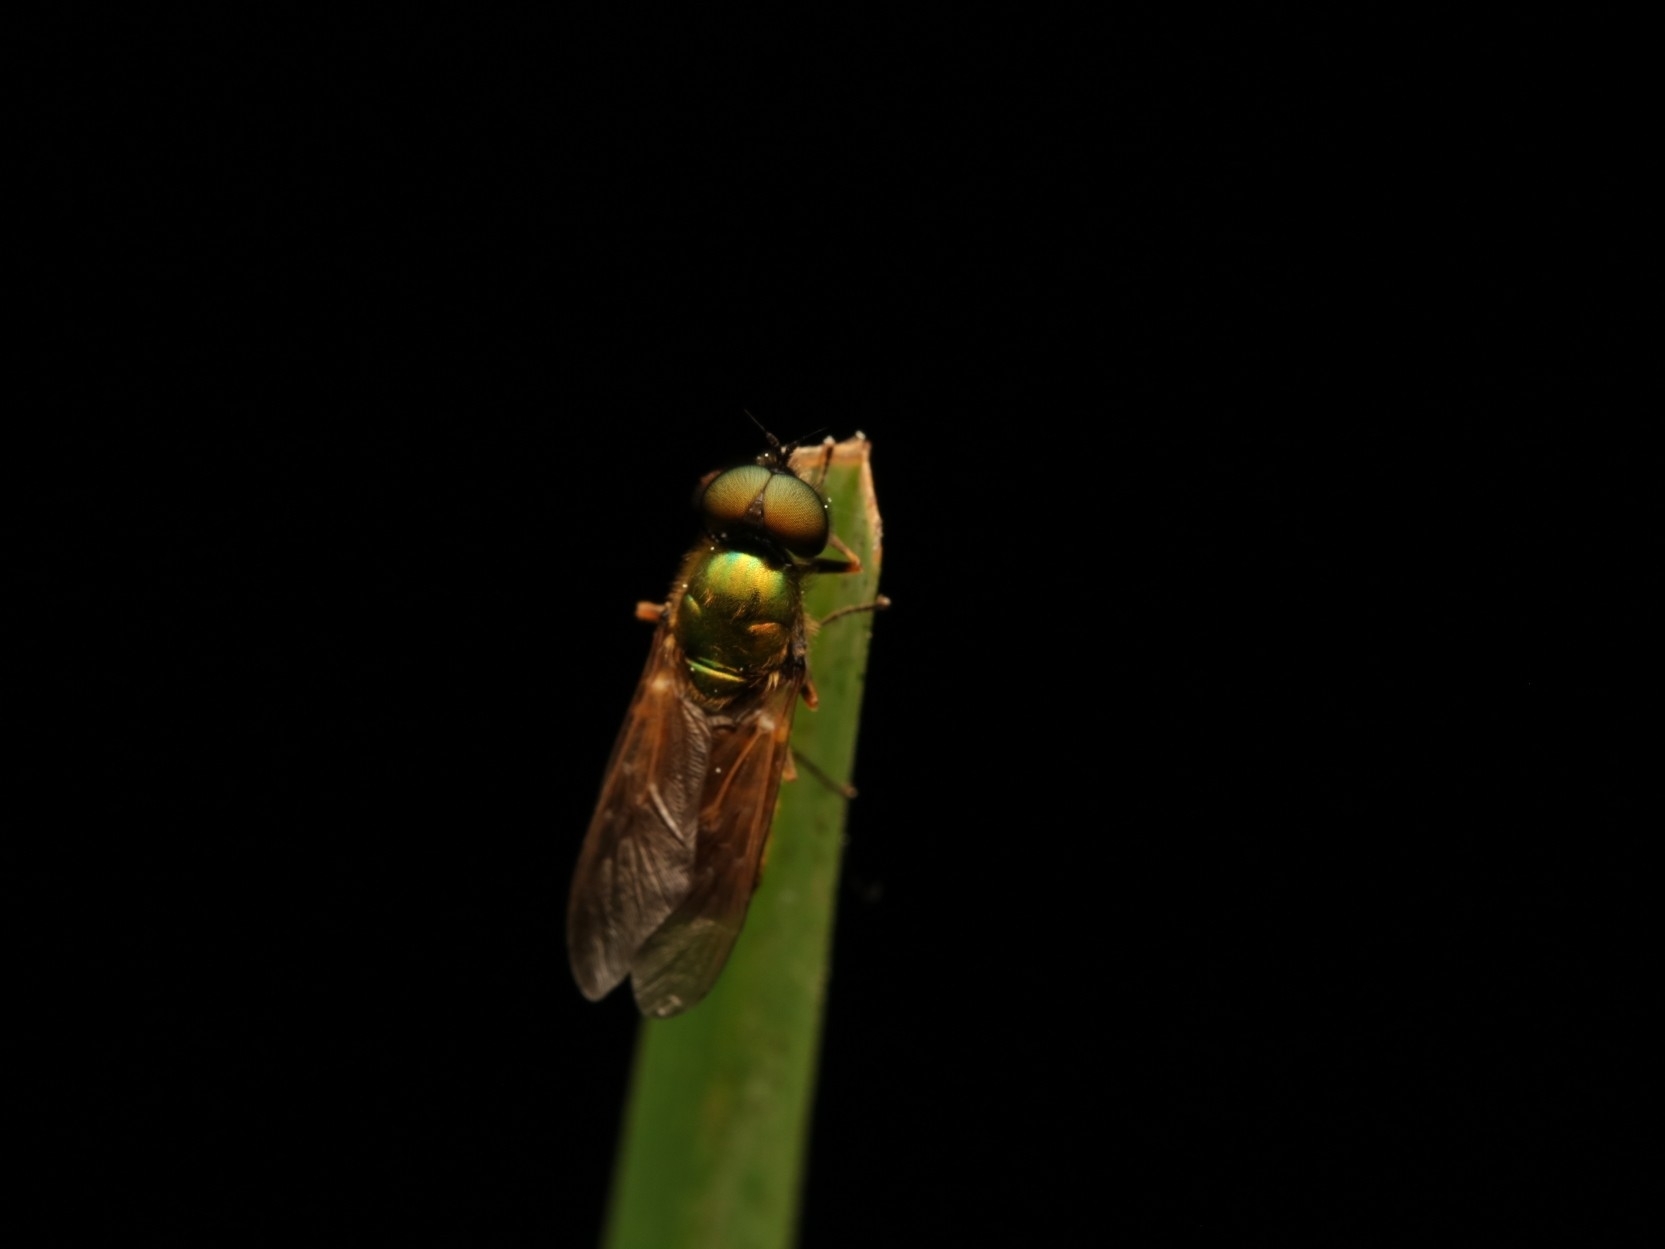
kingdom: Animalia
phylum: Arthropoda
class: Insecta
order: Diptera
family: Stratiomyidae
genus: Chloromyia
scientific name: Chloromyia formosa
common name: Soldier fly
